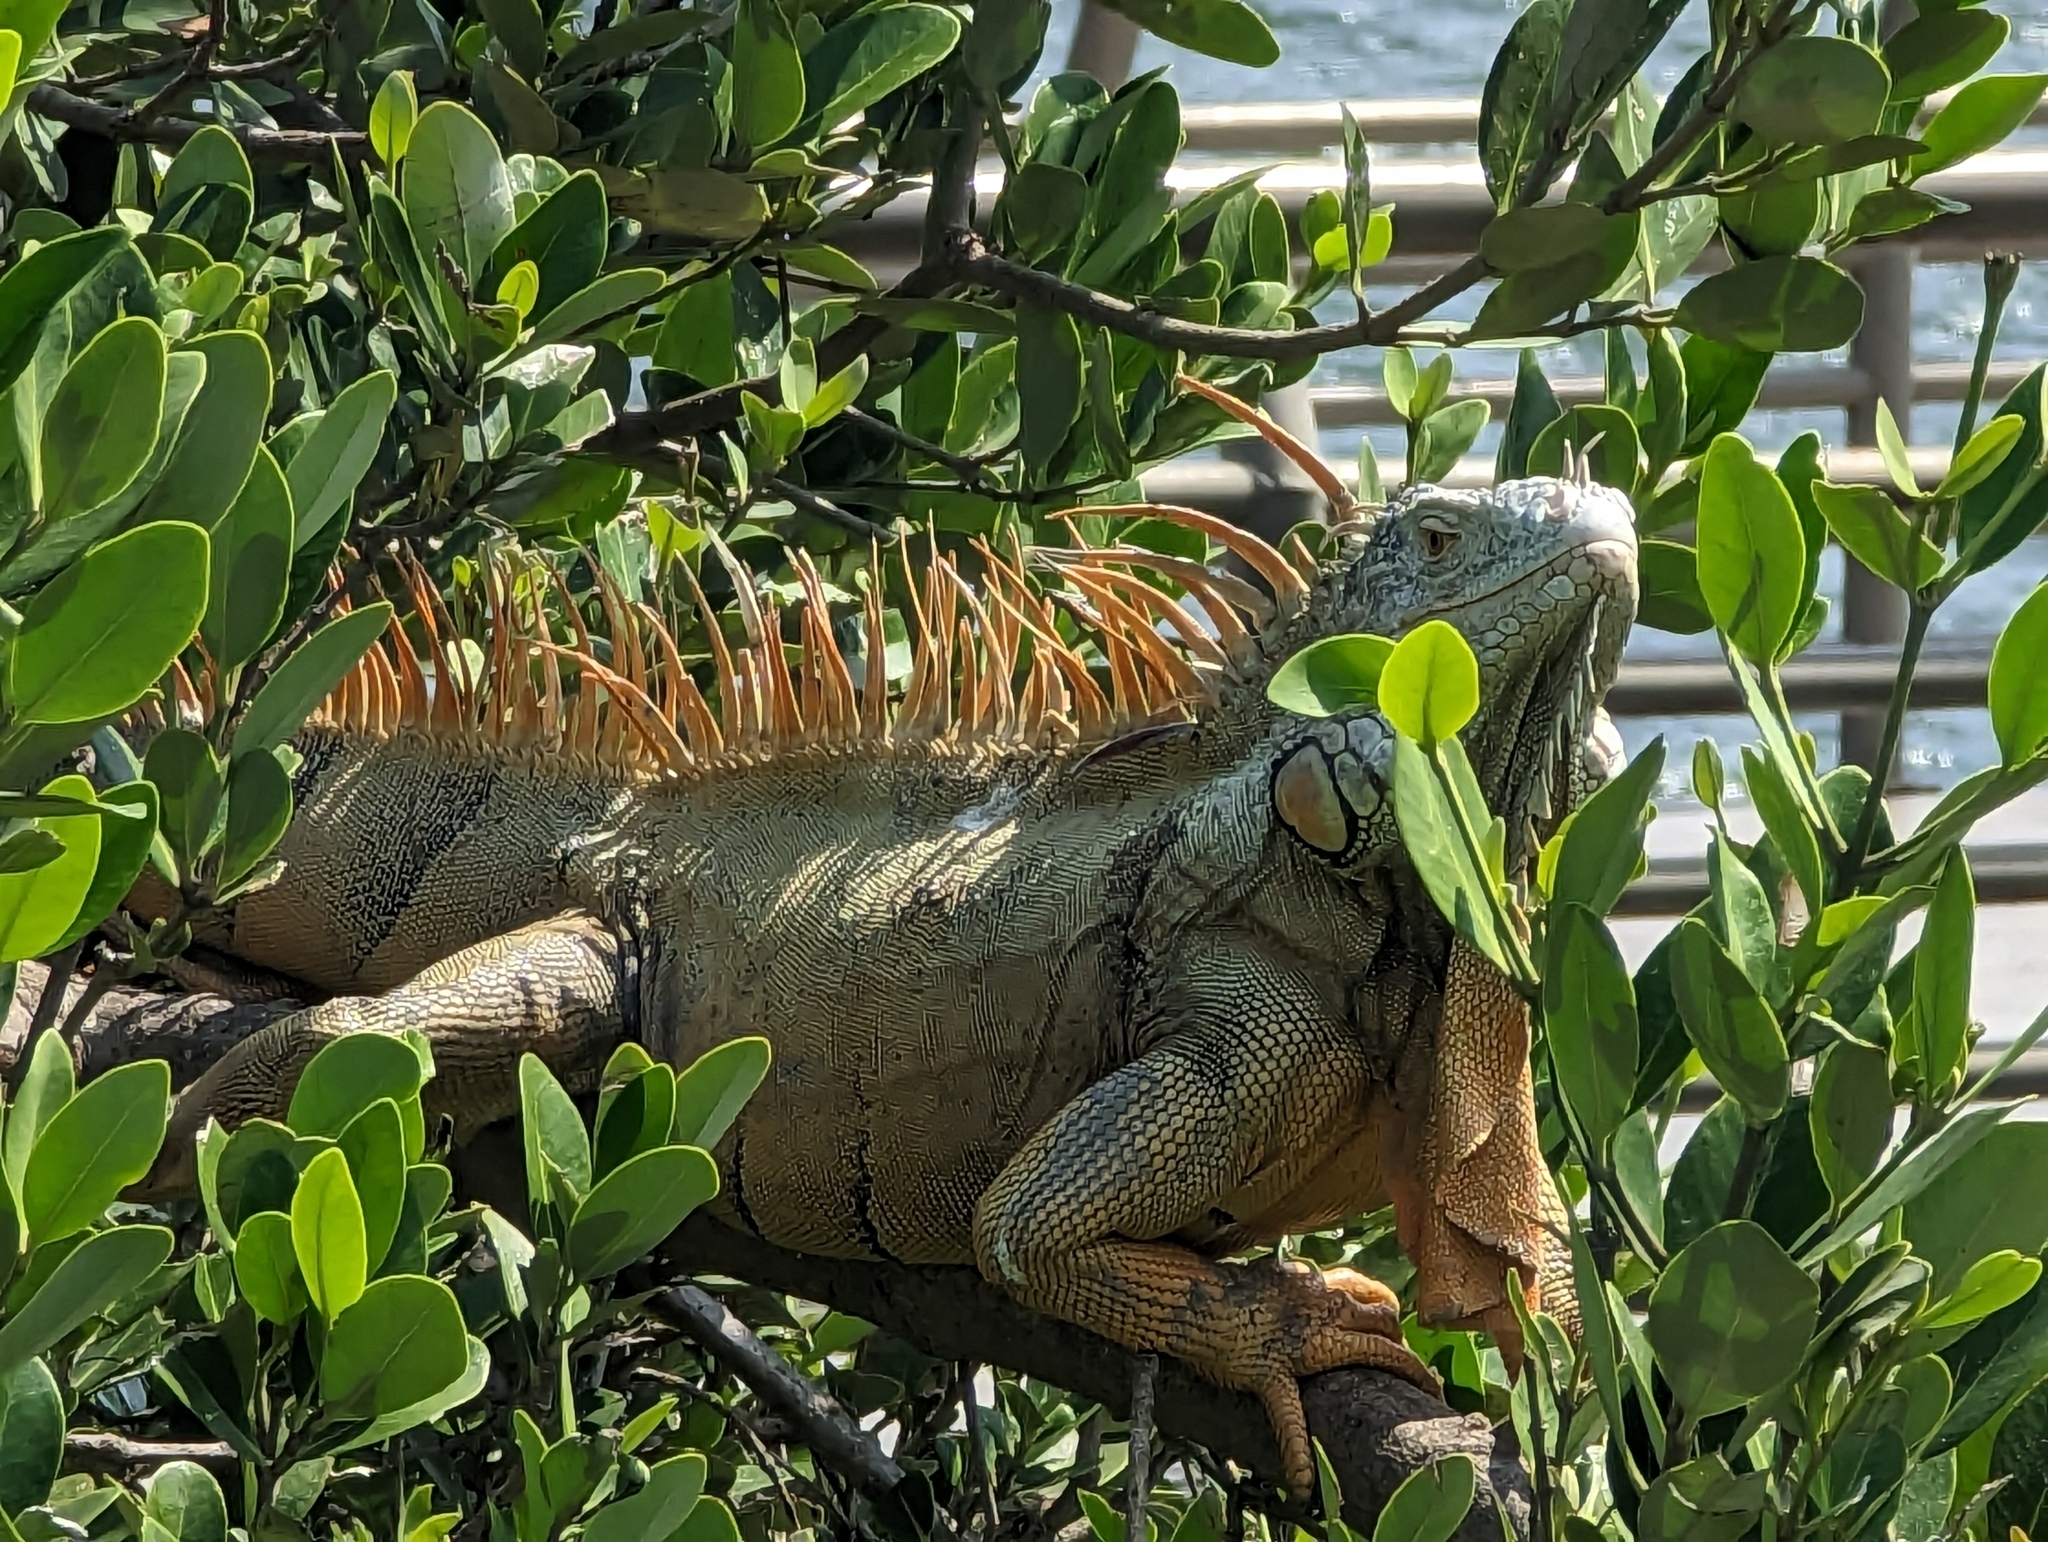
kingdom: Animalia
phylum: Chordata
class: Squamata
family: Iguanidae
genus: Iguana
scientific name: Iguana iguana
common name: Green iguana
